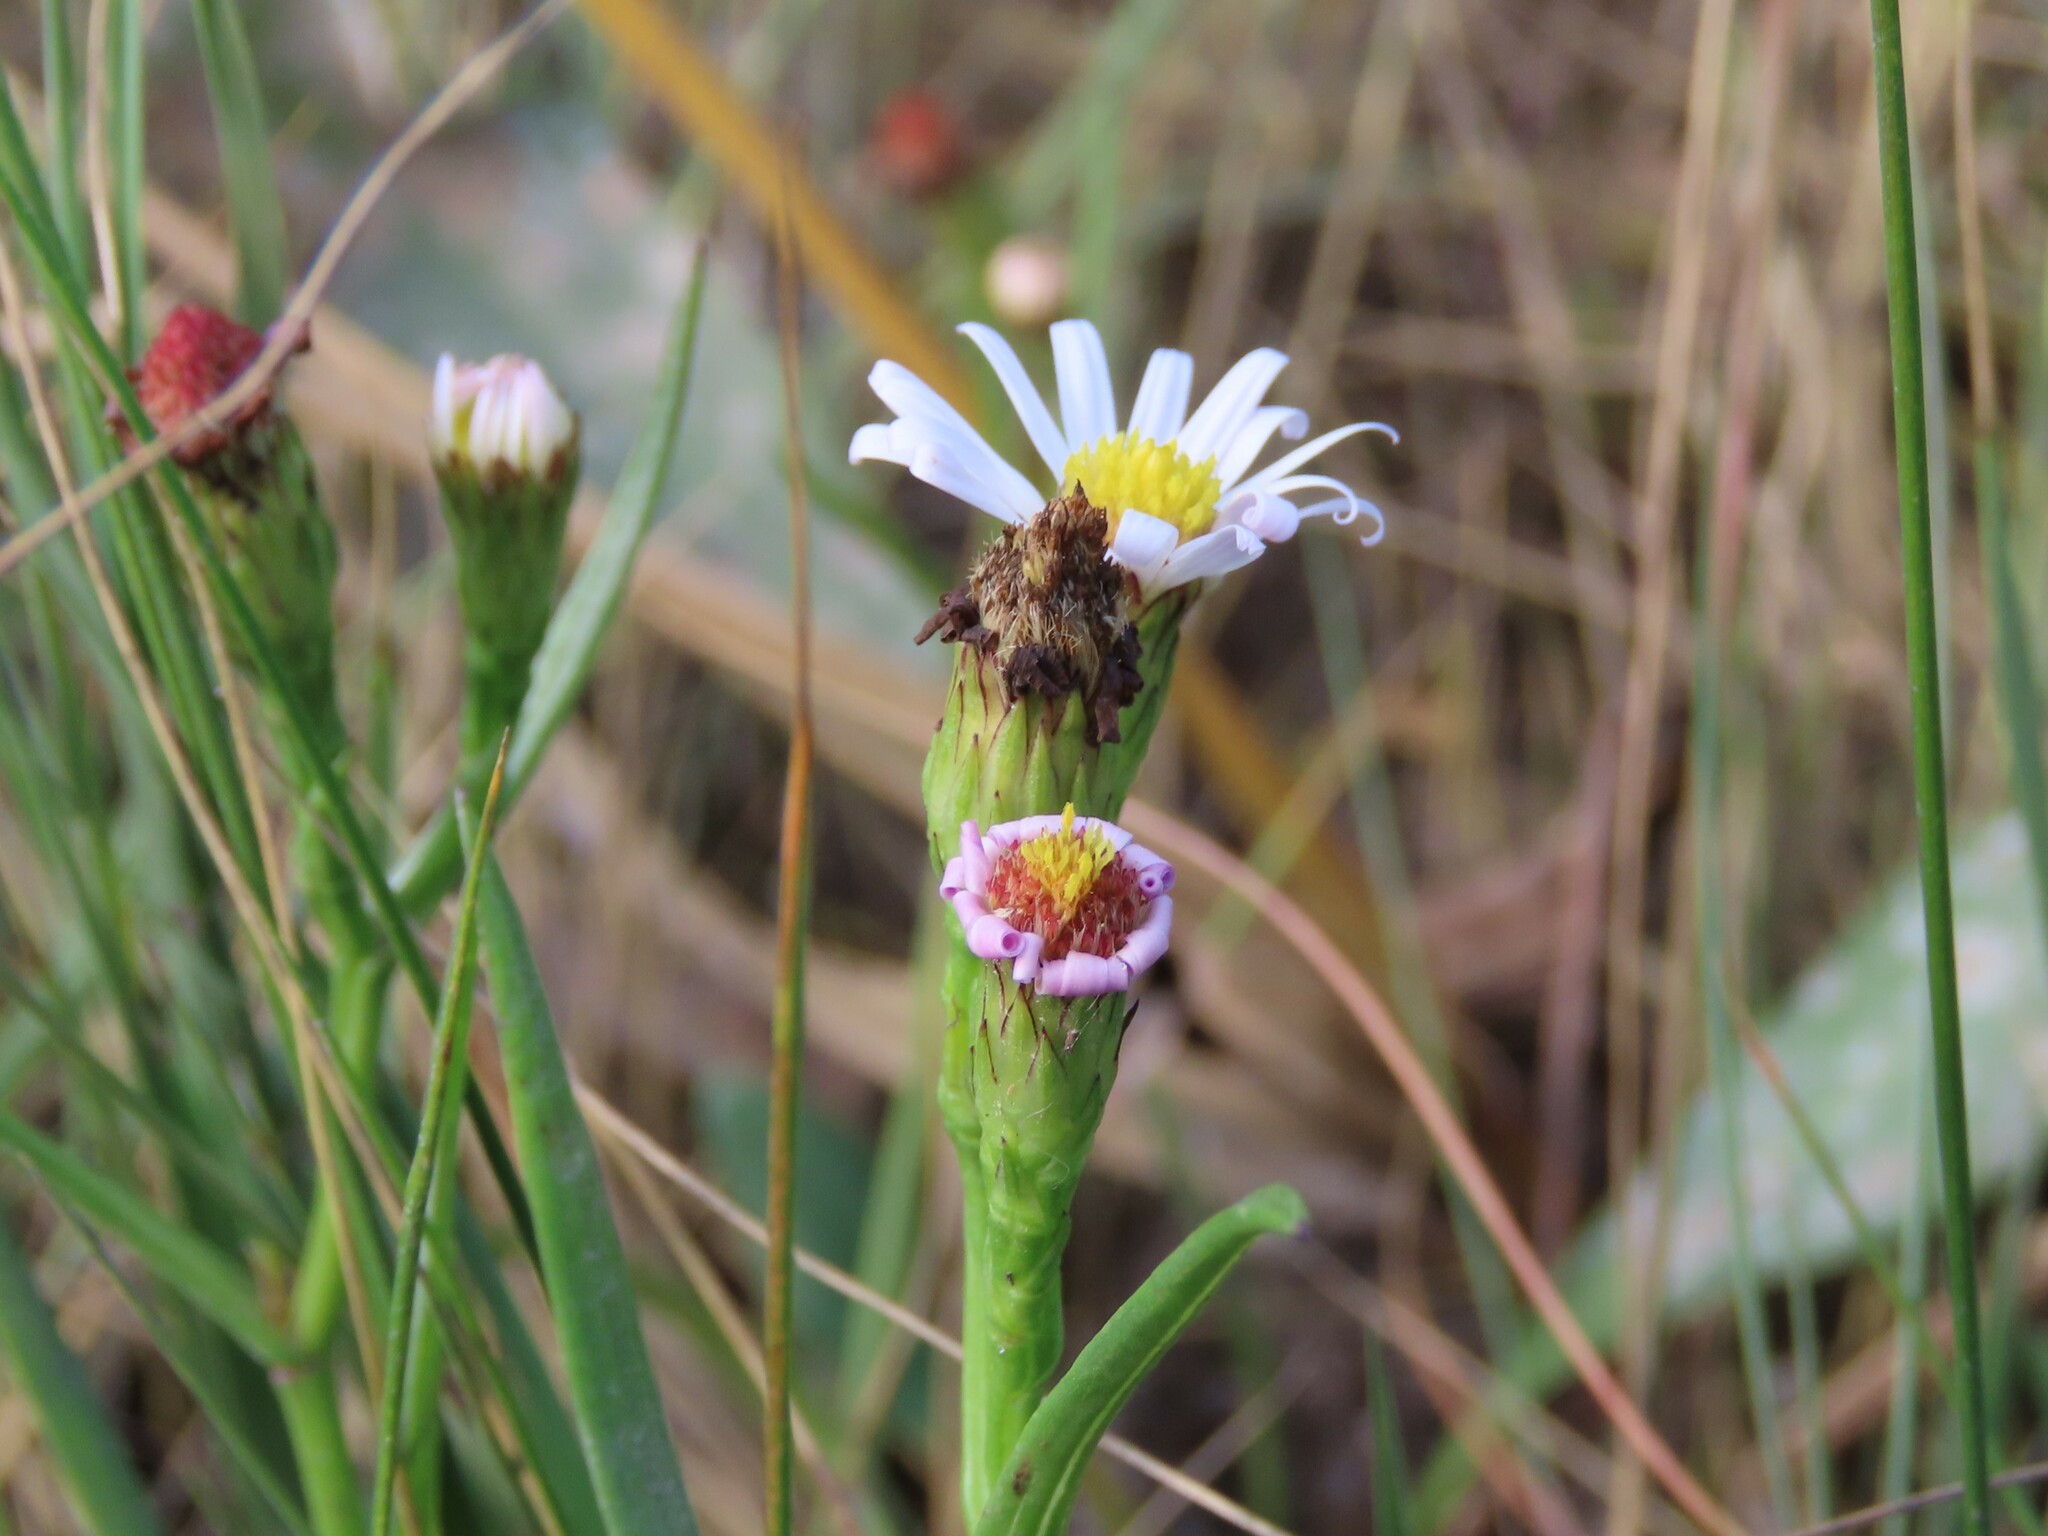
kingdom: Plantae
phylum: Tracheophyta
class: Magnoliopsida
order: Asterales
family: Asteraceae
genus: Symphyotrichum
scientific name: Symphyotrichum tenuifolium
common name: Perennial salt-marsh aster
